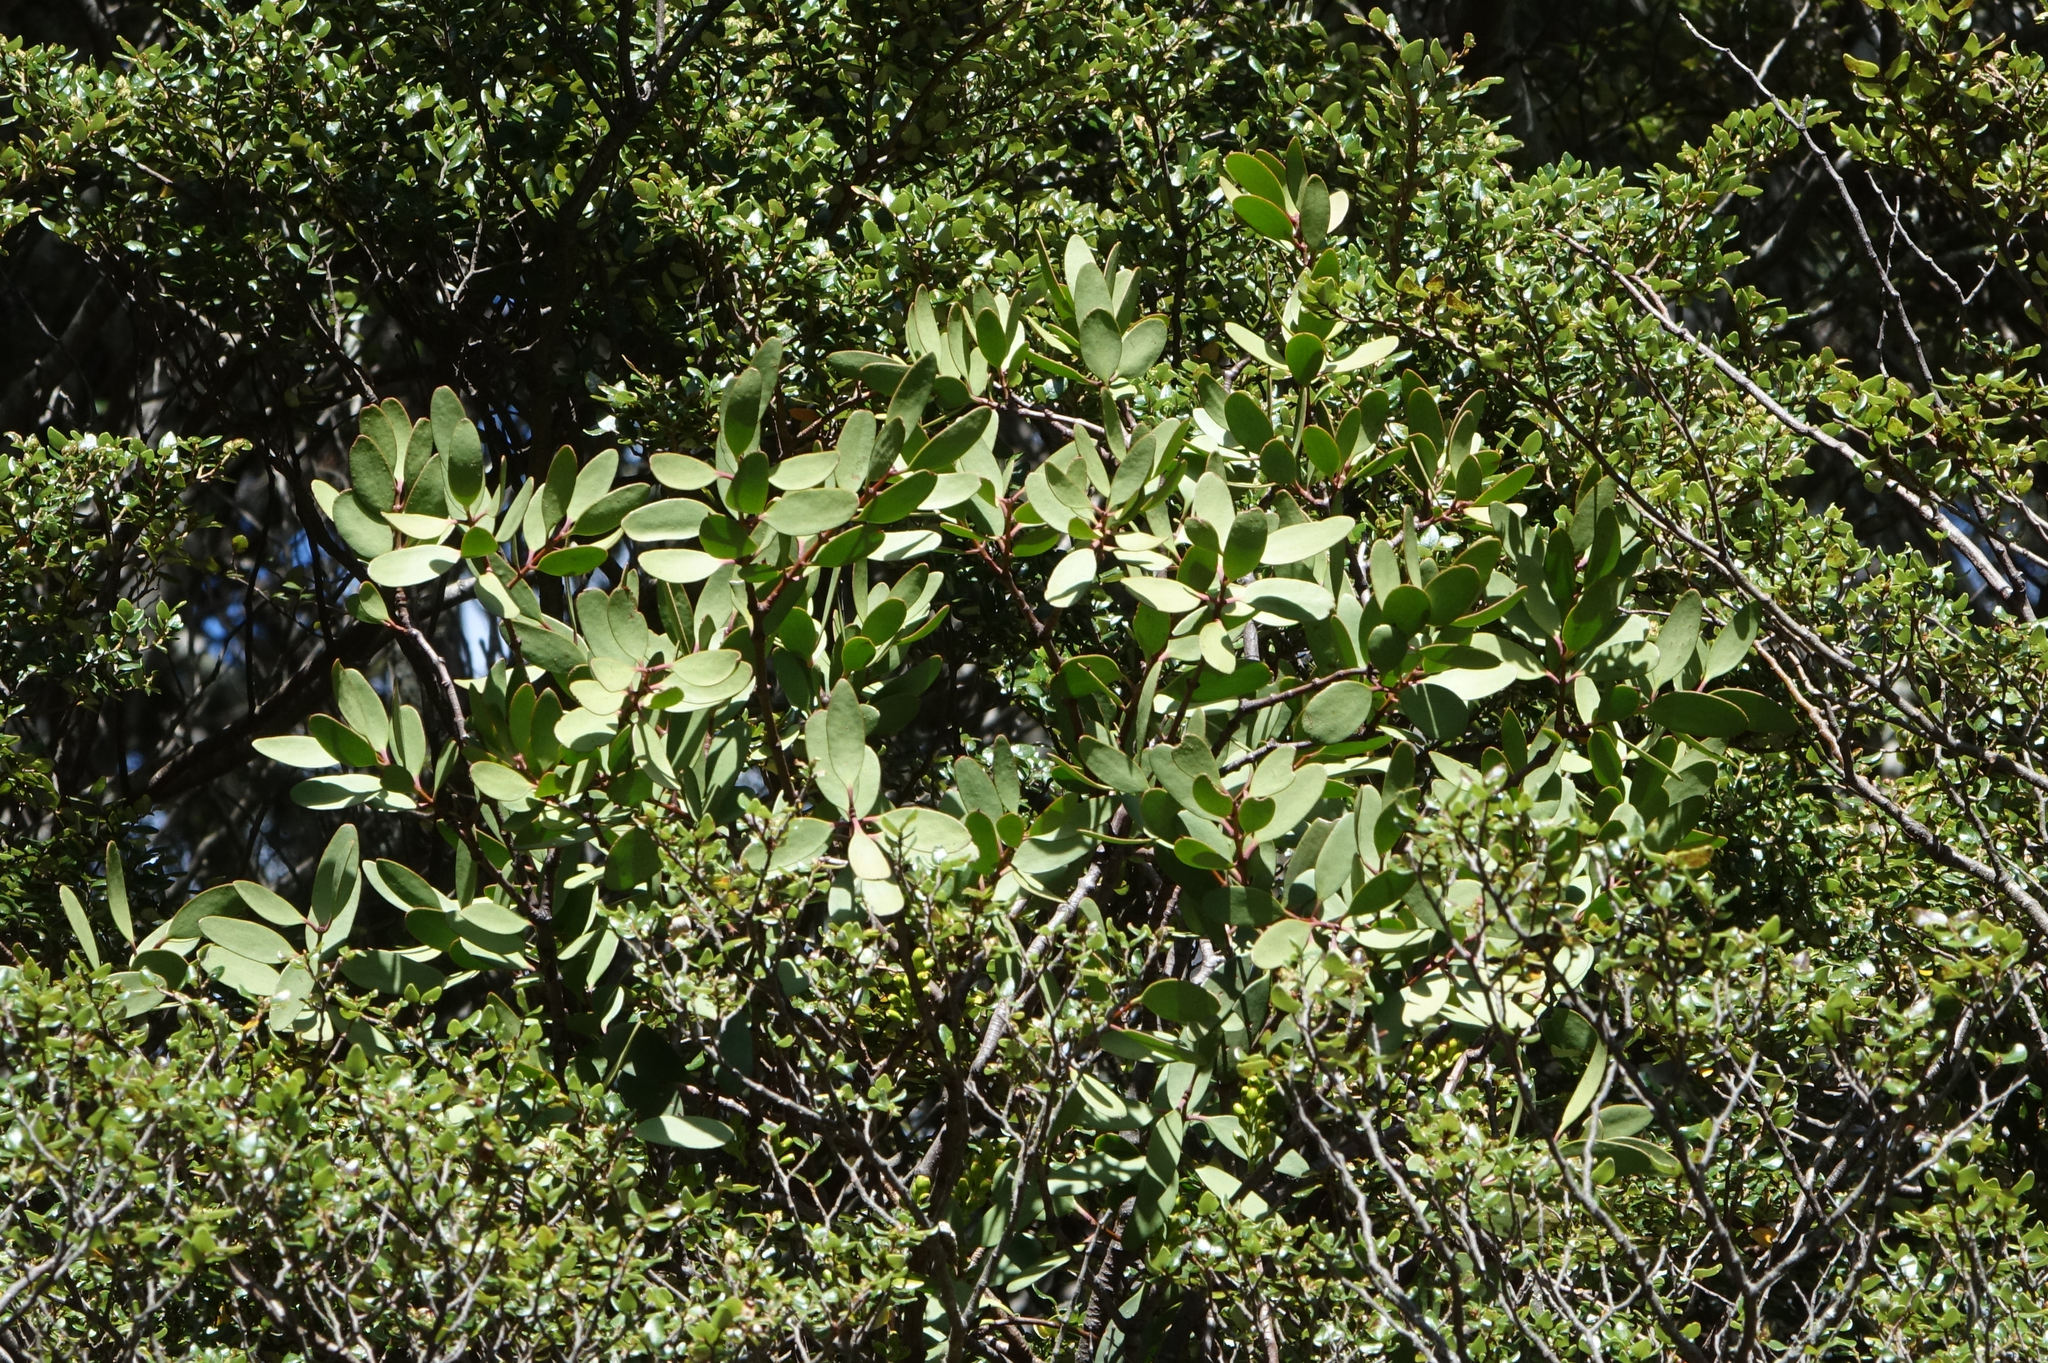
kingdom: Plantae
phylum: Tracheophyta
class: Magnoliopsida
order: Santalales
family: Loranthaceae
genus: Alepis
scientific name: Alepis flavida
